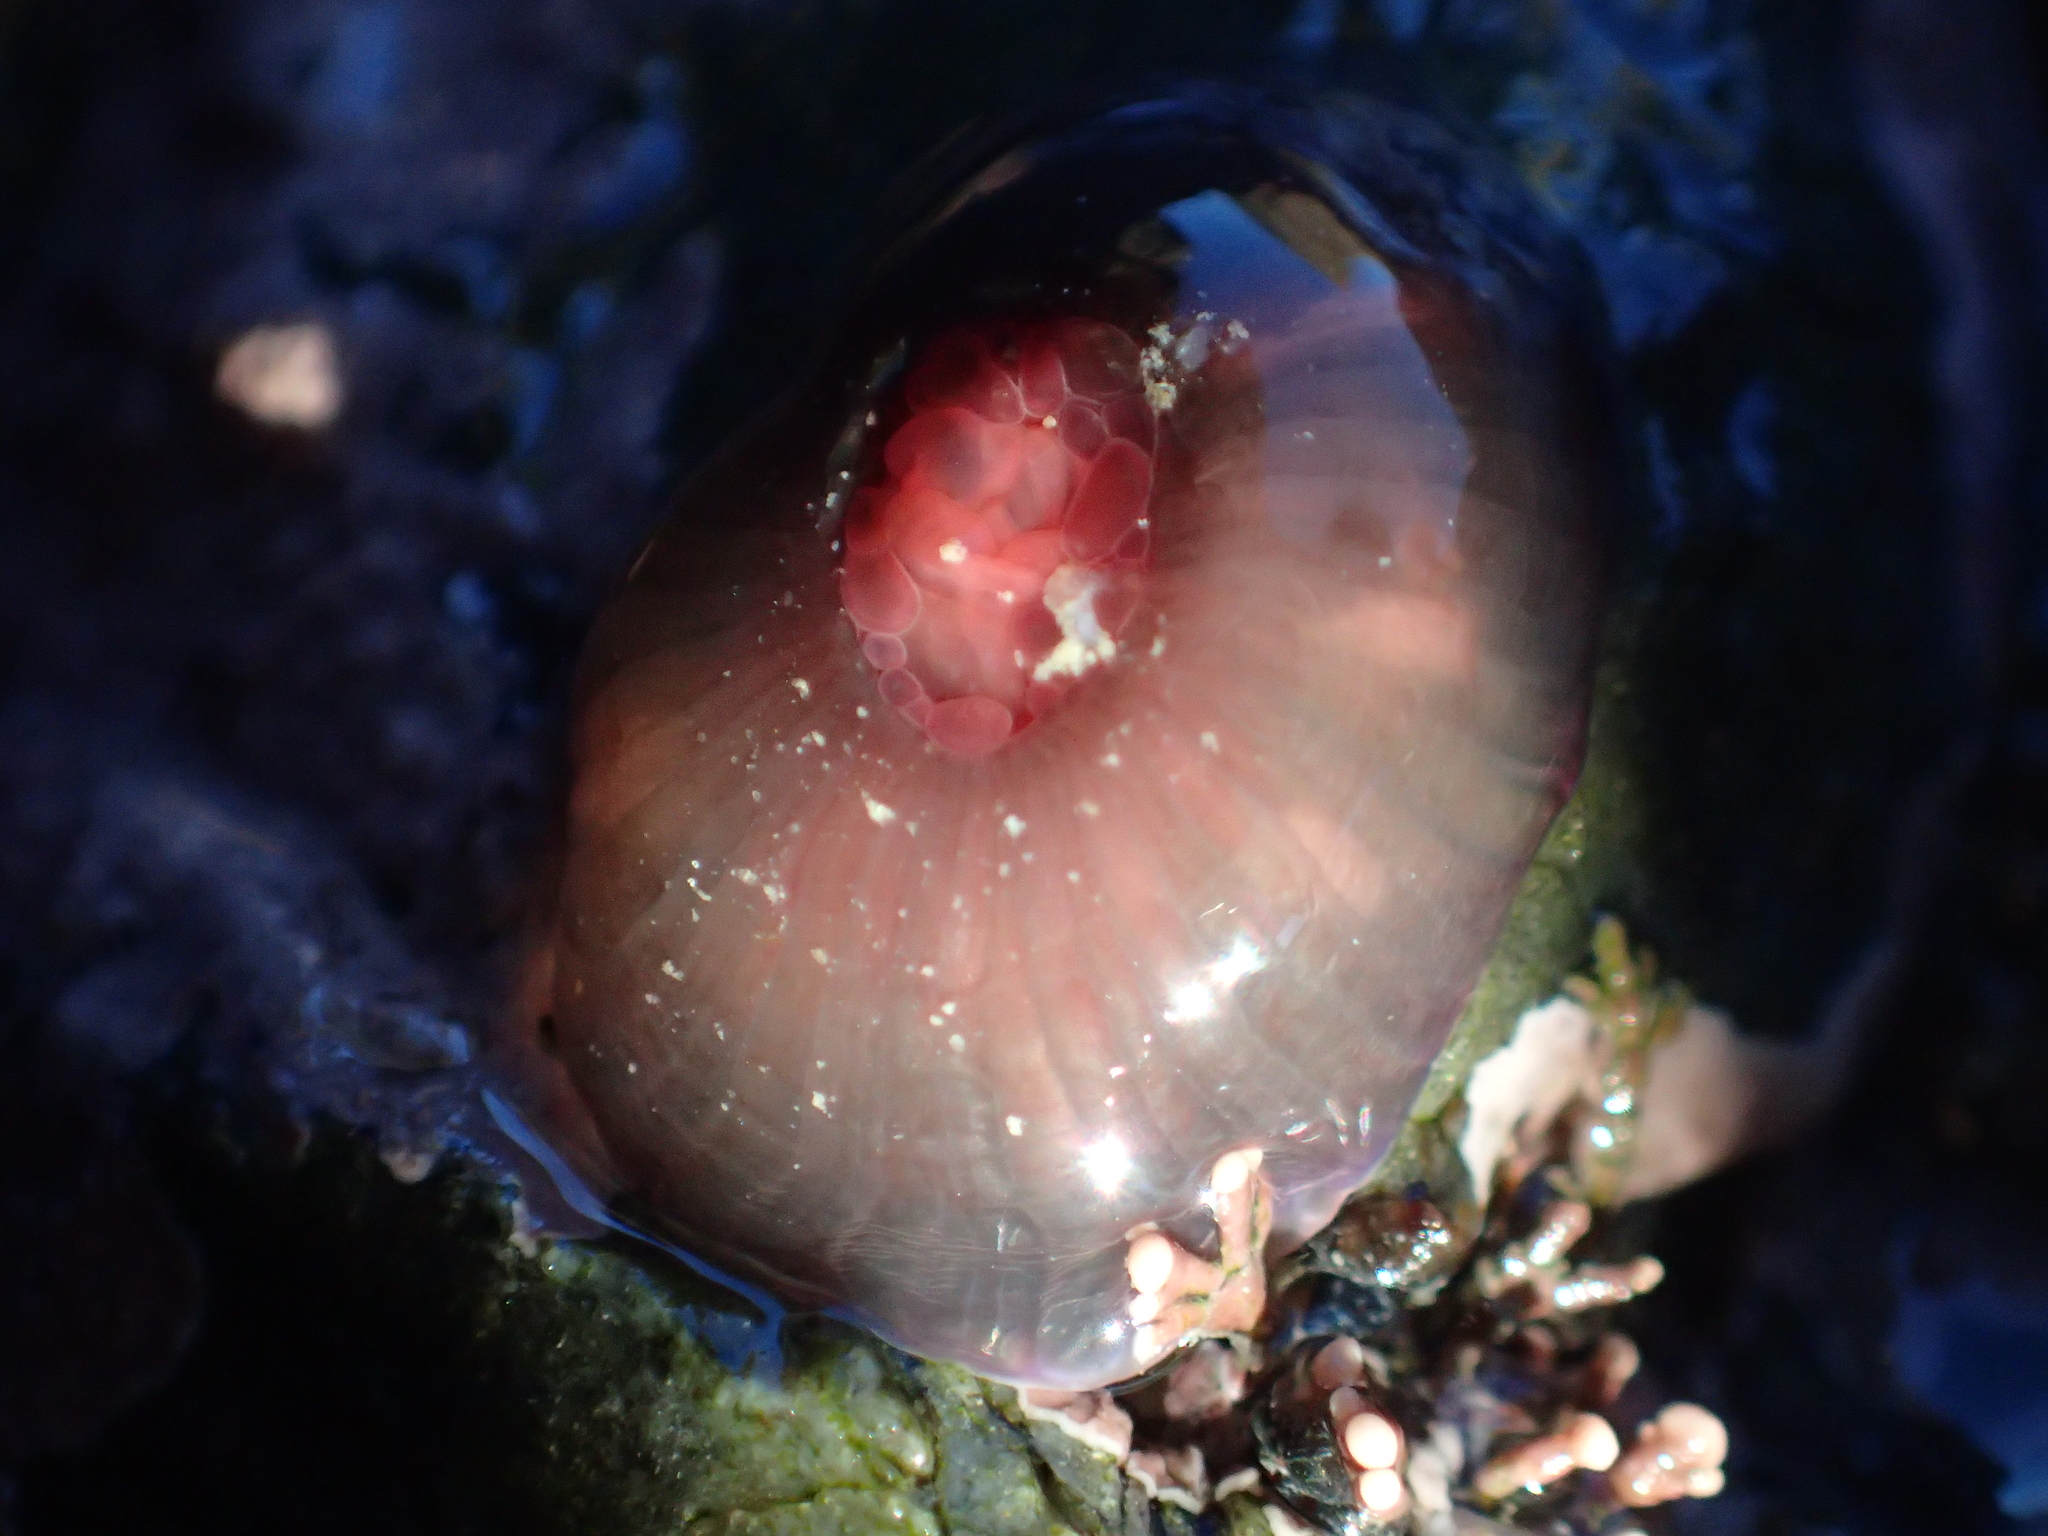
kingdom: Animalia
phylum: Cnidaria
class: Anthozoa
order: Actiniaria
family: Actiniidae
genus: Actinia
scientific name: Actinia tenebrosa
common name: Waratah anemone
